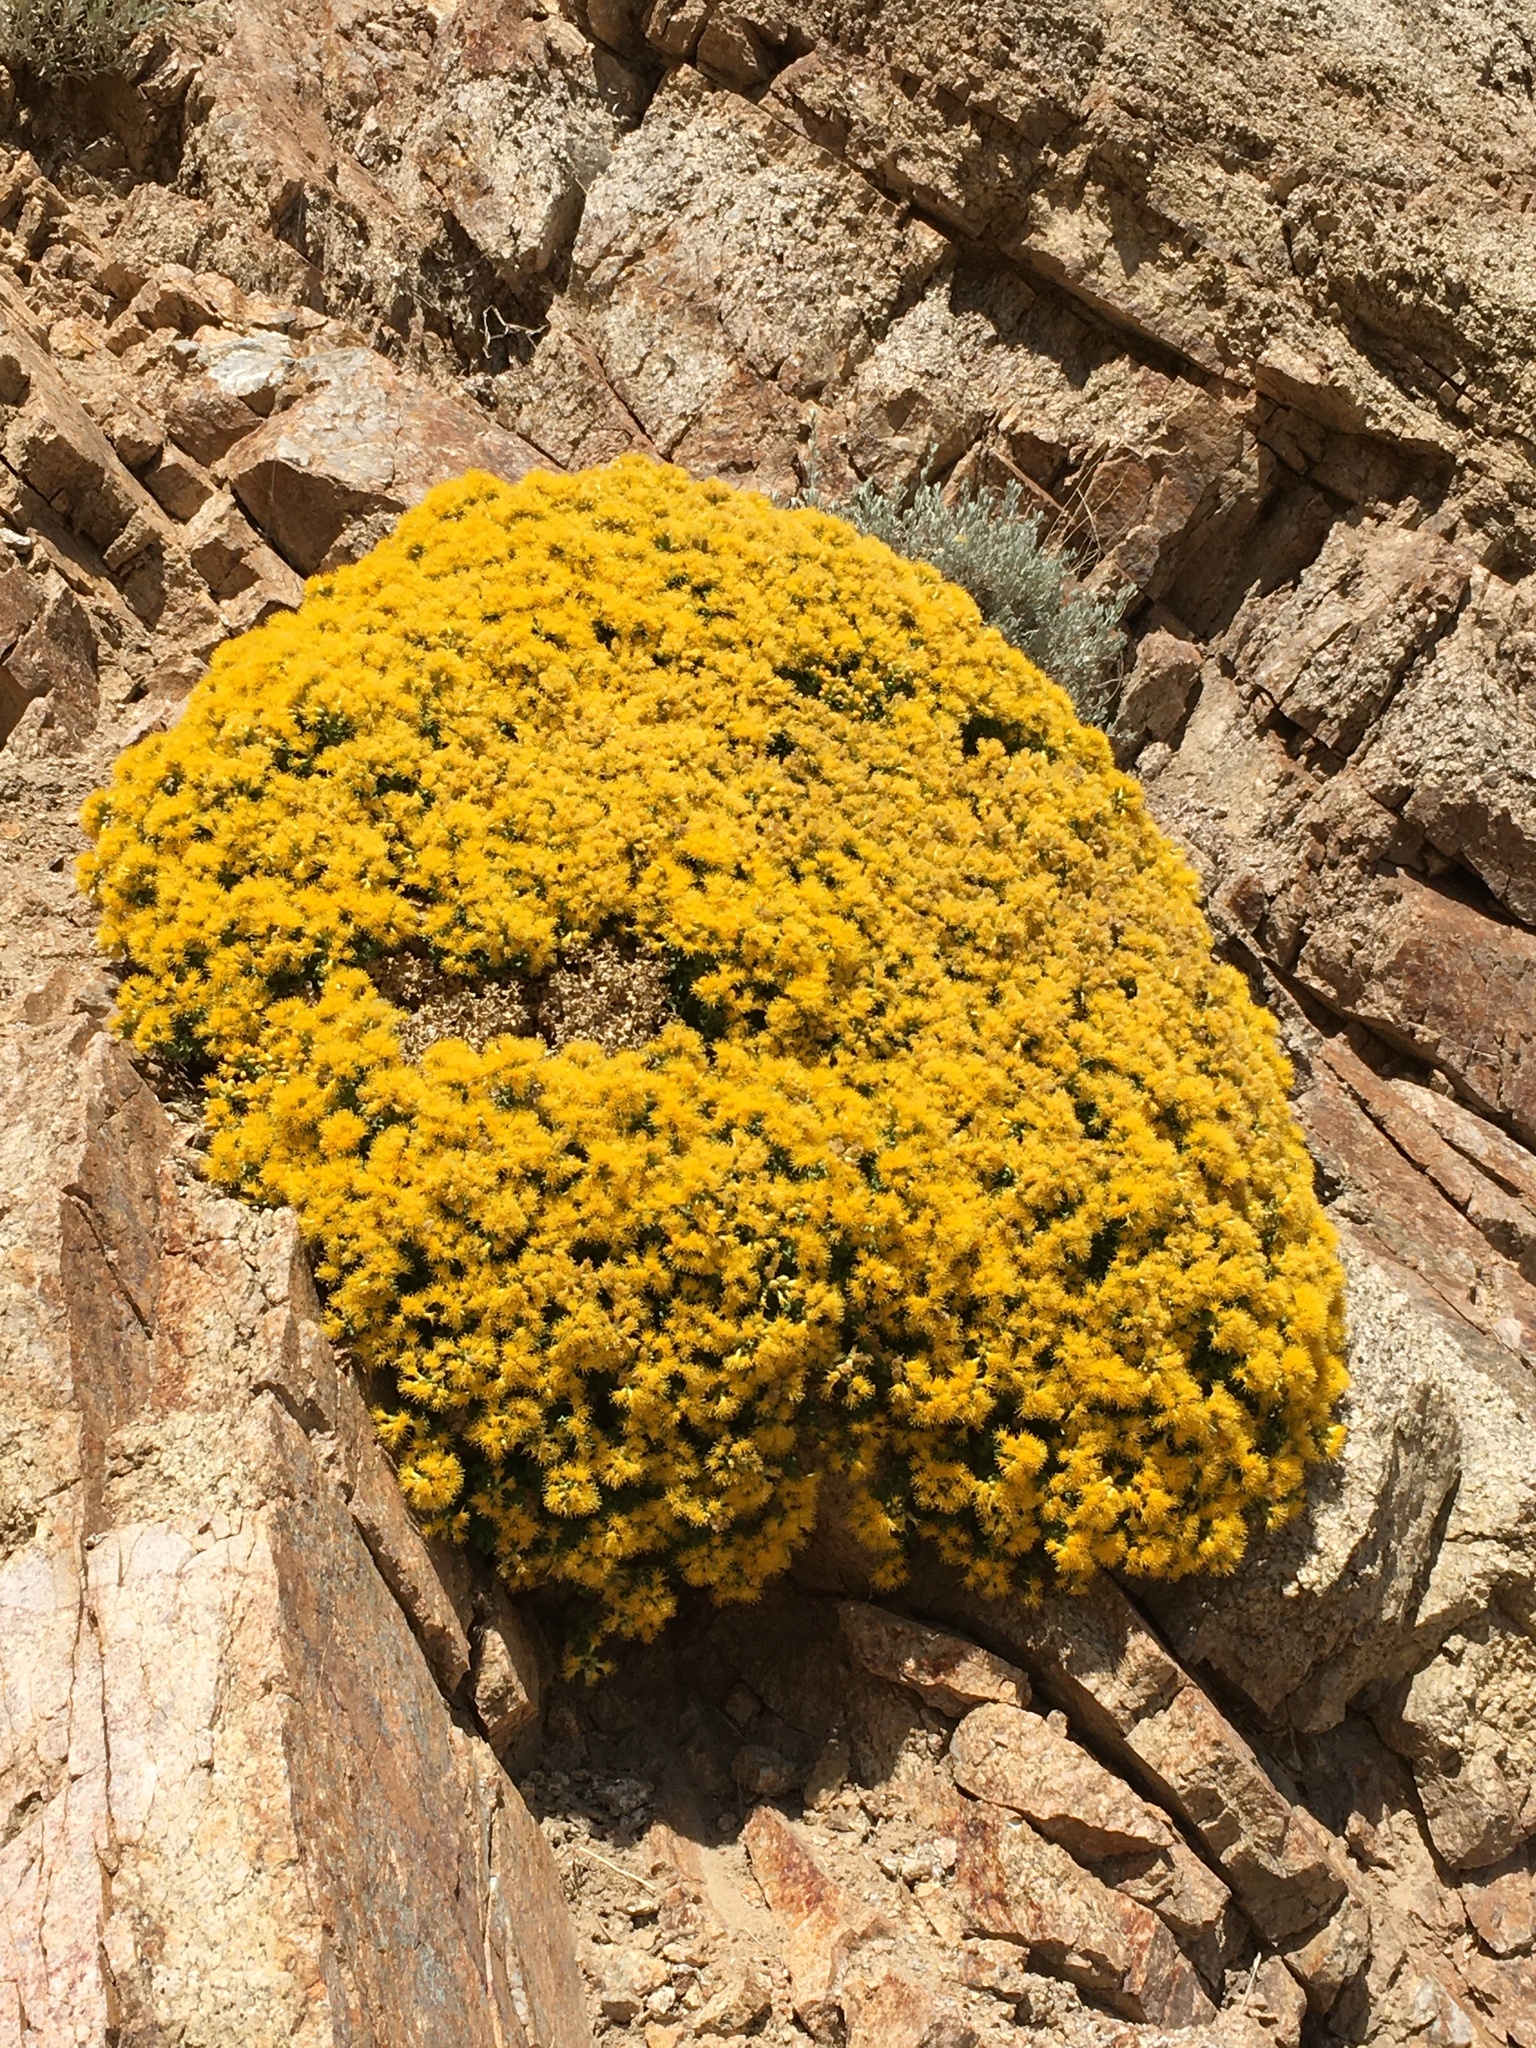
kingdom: Plantae
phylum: Tracheophyta
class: Magnoliopsida
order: Asterales
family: Asteraceae
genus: Ericameria
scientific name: Ericameria cuneata
